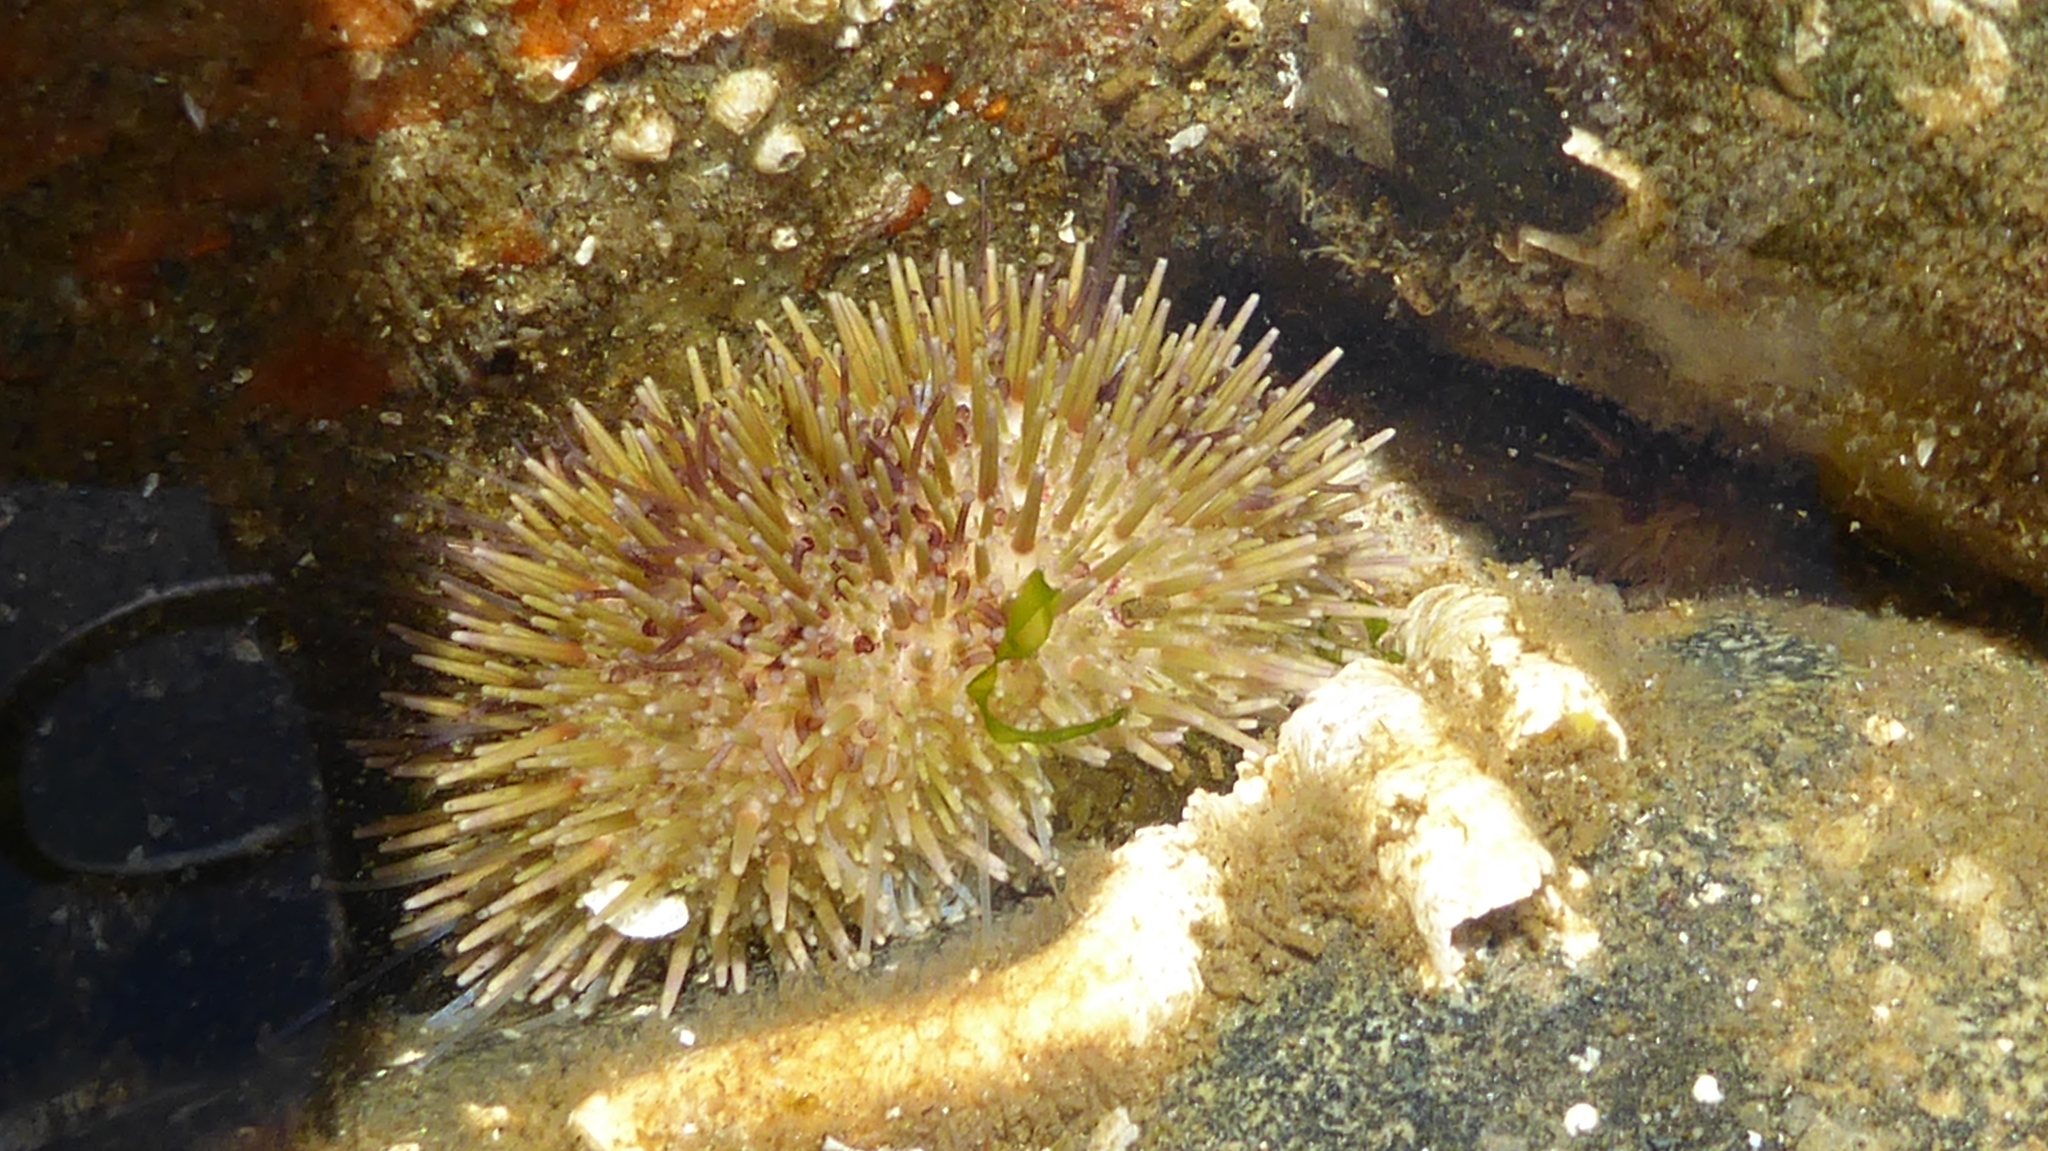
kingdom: Animalia
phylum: Echinodermata
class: Echinoidea
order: Camarodonta
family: Strongylocentrotidae
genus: Strongylocentrotus
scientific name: Strongylocentrotus droebachiensis
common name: Northern sea urchin
